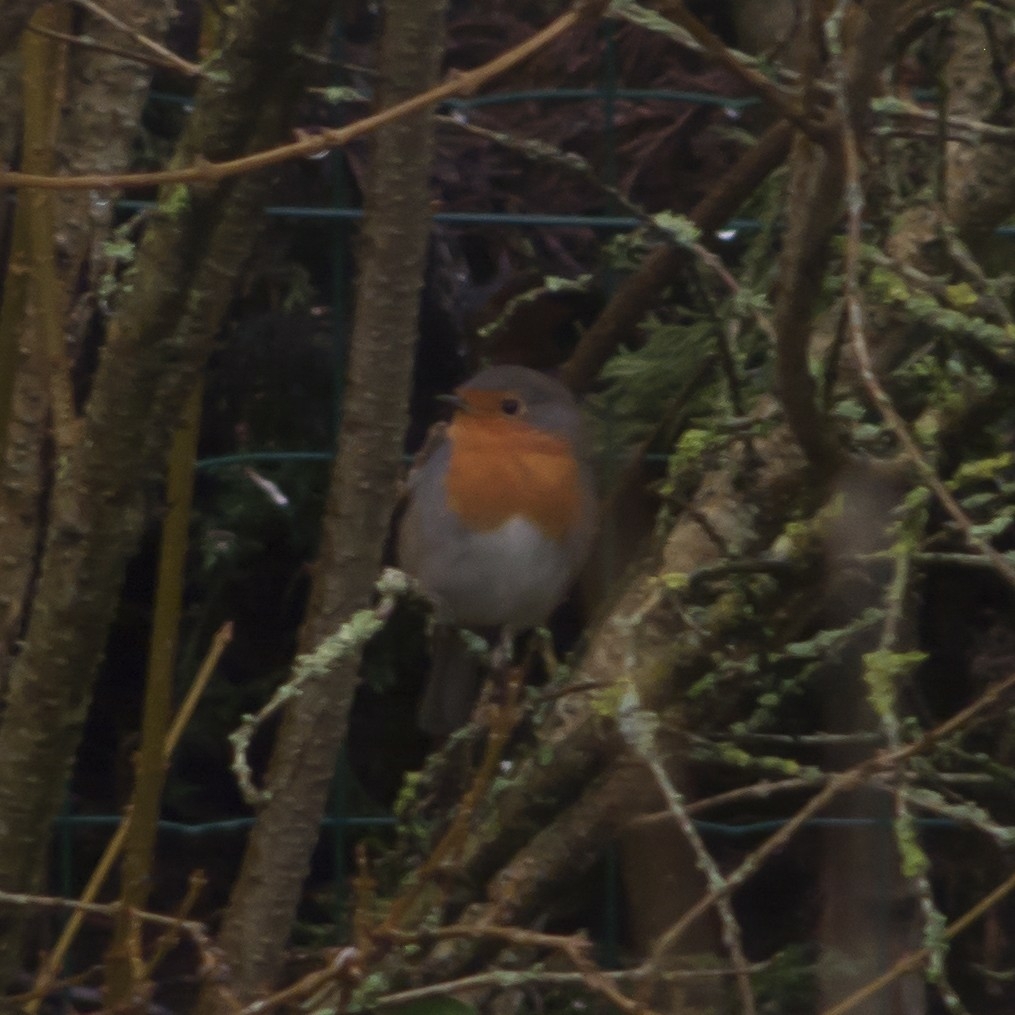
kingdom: Animalia
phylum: Chordata
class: Aves
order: Passeriformes
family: Muscicapidae
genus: Erithacus
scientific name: Erithacus rubecula
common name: European robin
